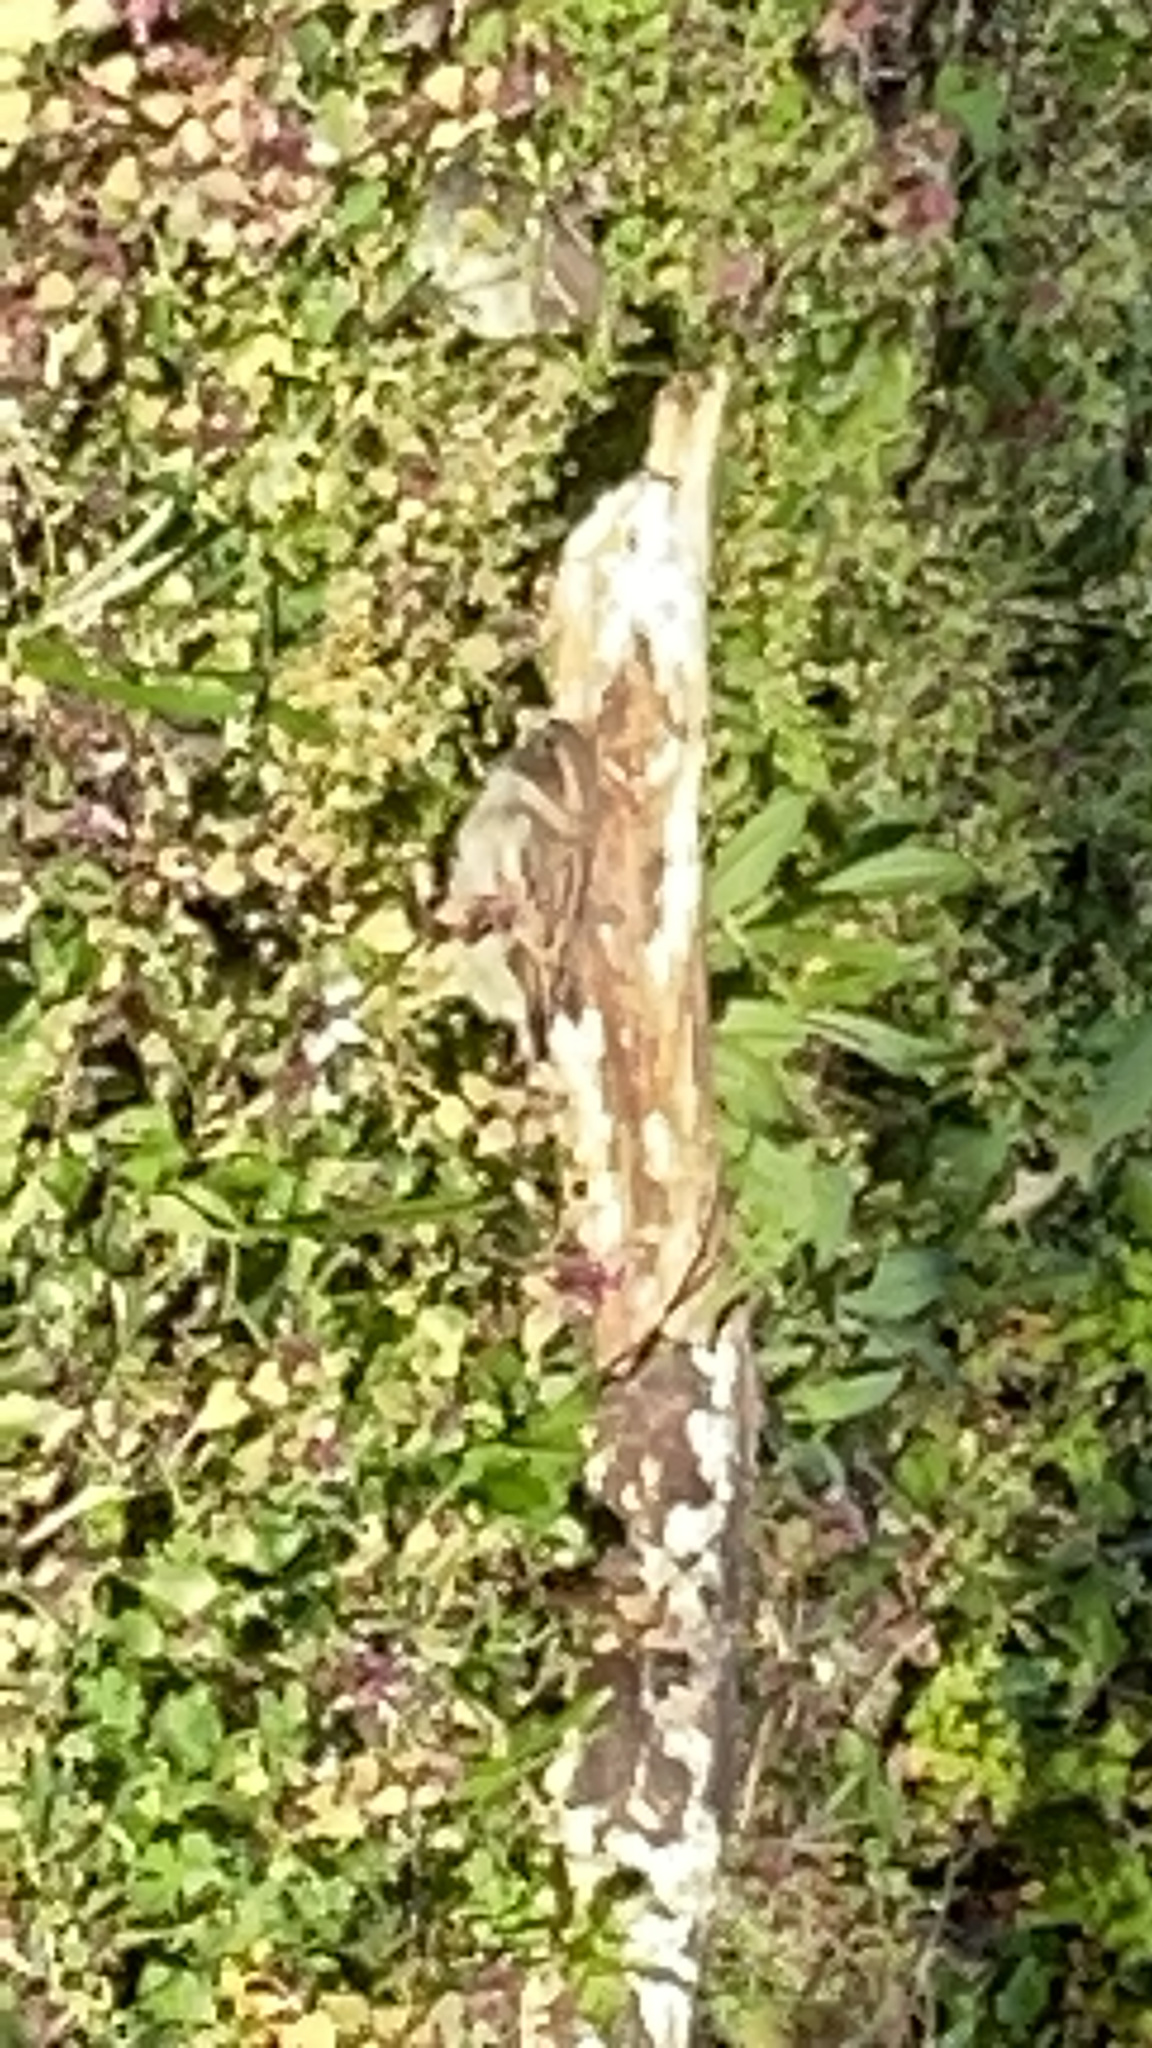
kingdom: Animalia
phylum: Chordata
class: Aves
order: Passeriformes
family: Passeridae
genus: Passer
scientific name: Passer domesticus
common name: House sparrow
